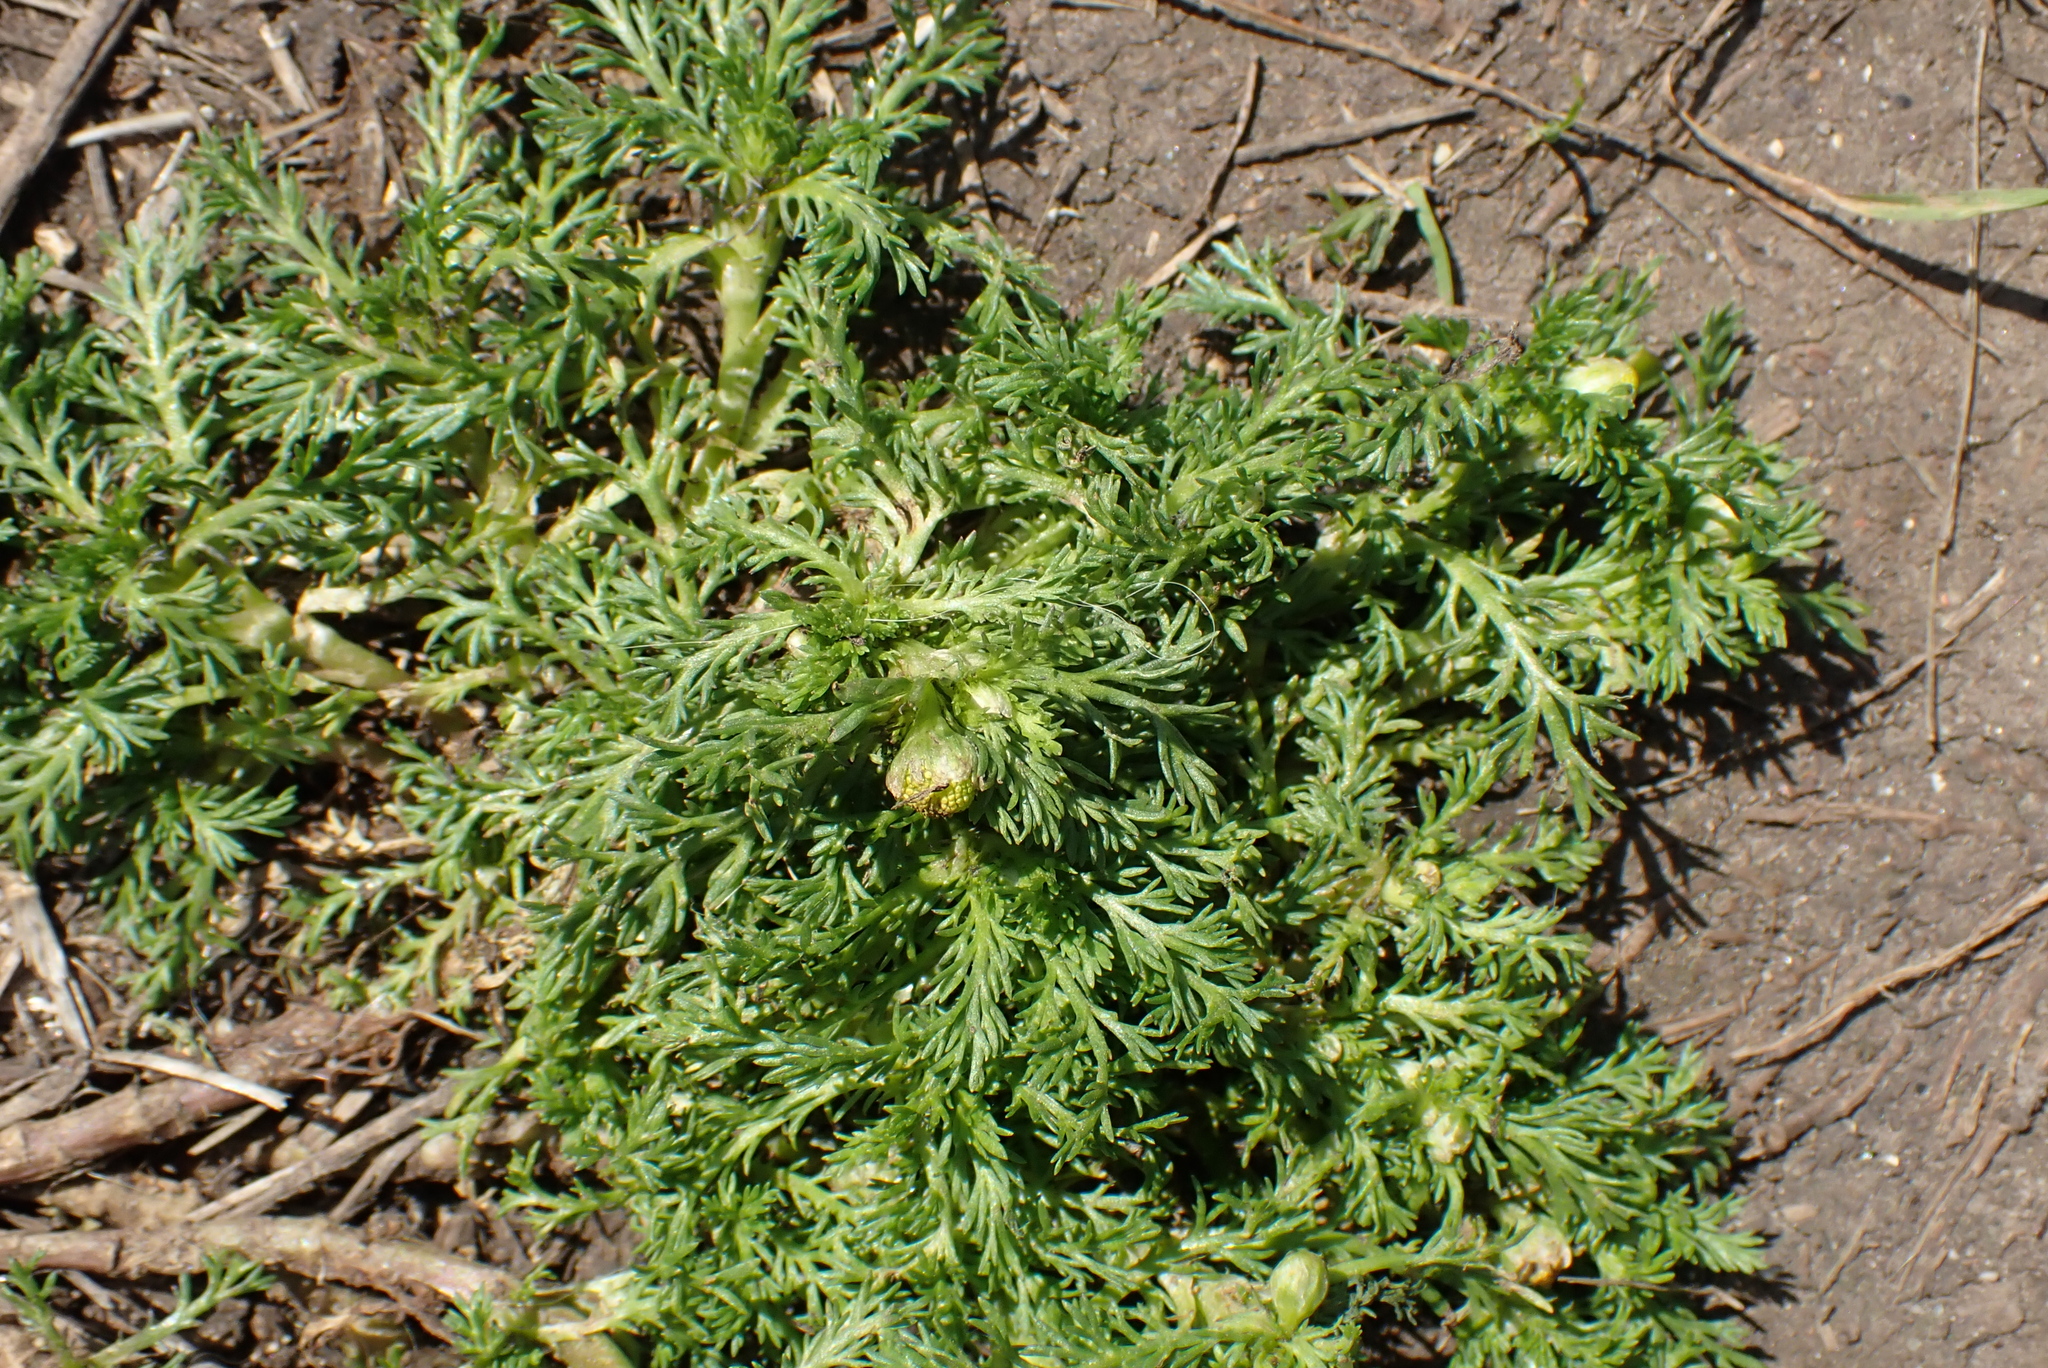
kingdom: Plantae
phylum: Tracheophyta
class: Magnoliopsida
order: Asterales
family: Asteraceae
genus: Matricaria
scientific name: Matricaria discoidea
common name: Disc mayweed
